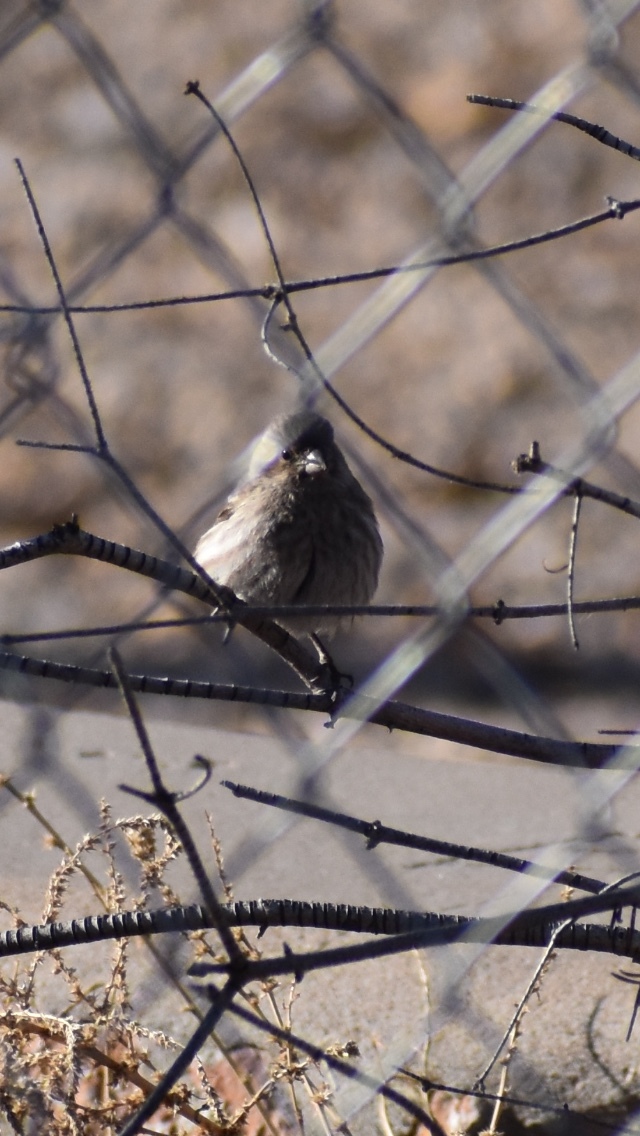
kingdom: Animalia
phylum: Chordata
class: Aves
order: Passeriformes
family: Fringillidae
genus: Haemorhous
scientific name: Haemorhous mexicanus
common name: House finch
